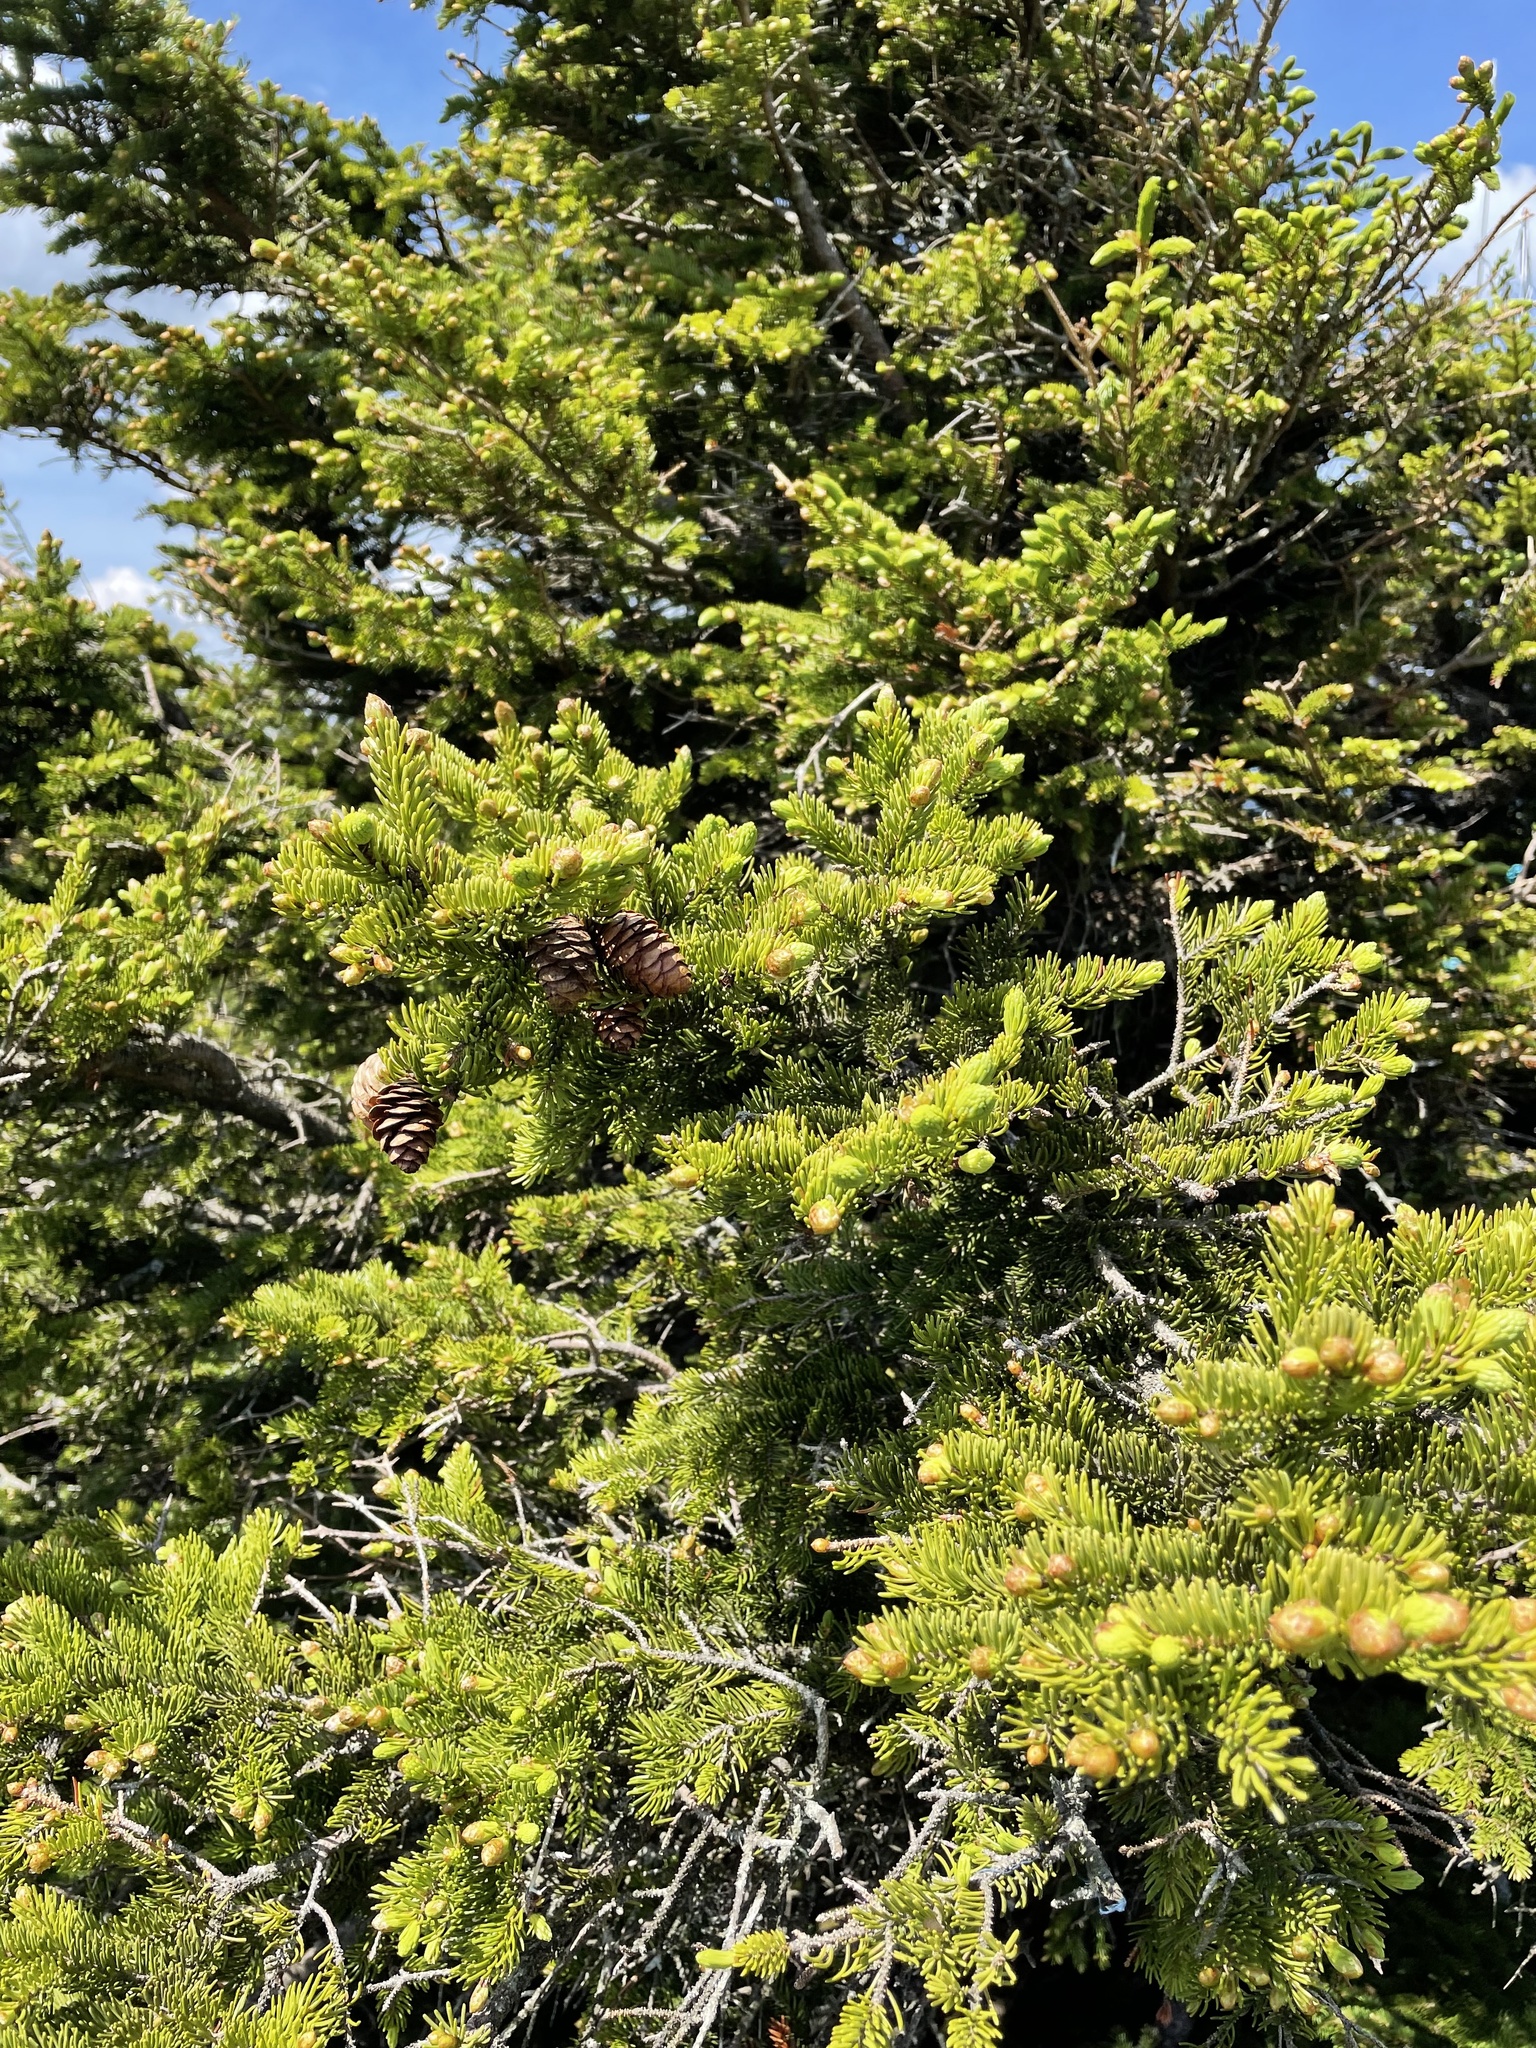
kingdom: Plantae
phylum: Tracheophyta
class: Pinopsida
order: Pinales
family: Pinaceae
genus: Picea
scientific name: Picea rubens
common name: Red spruce
